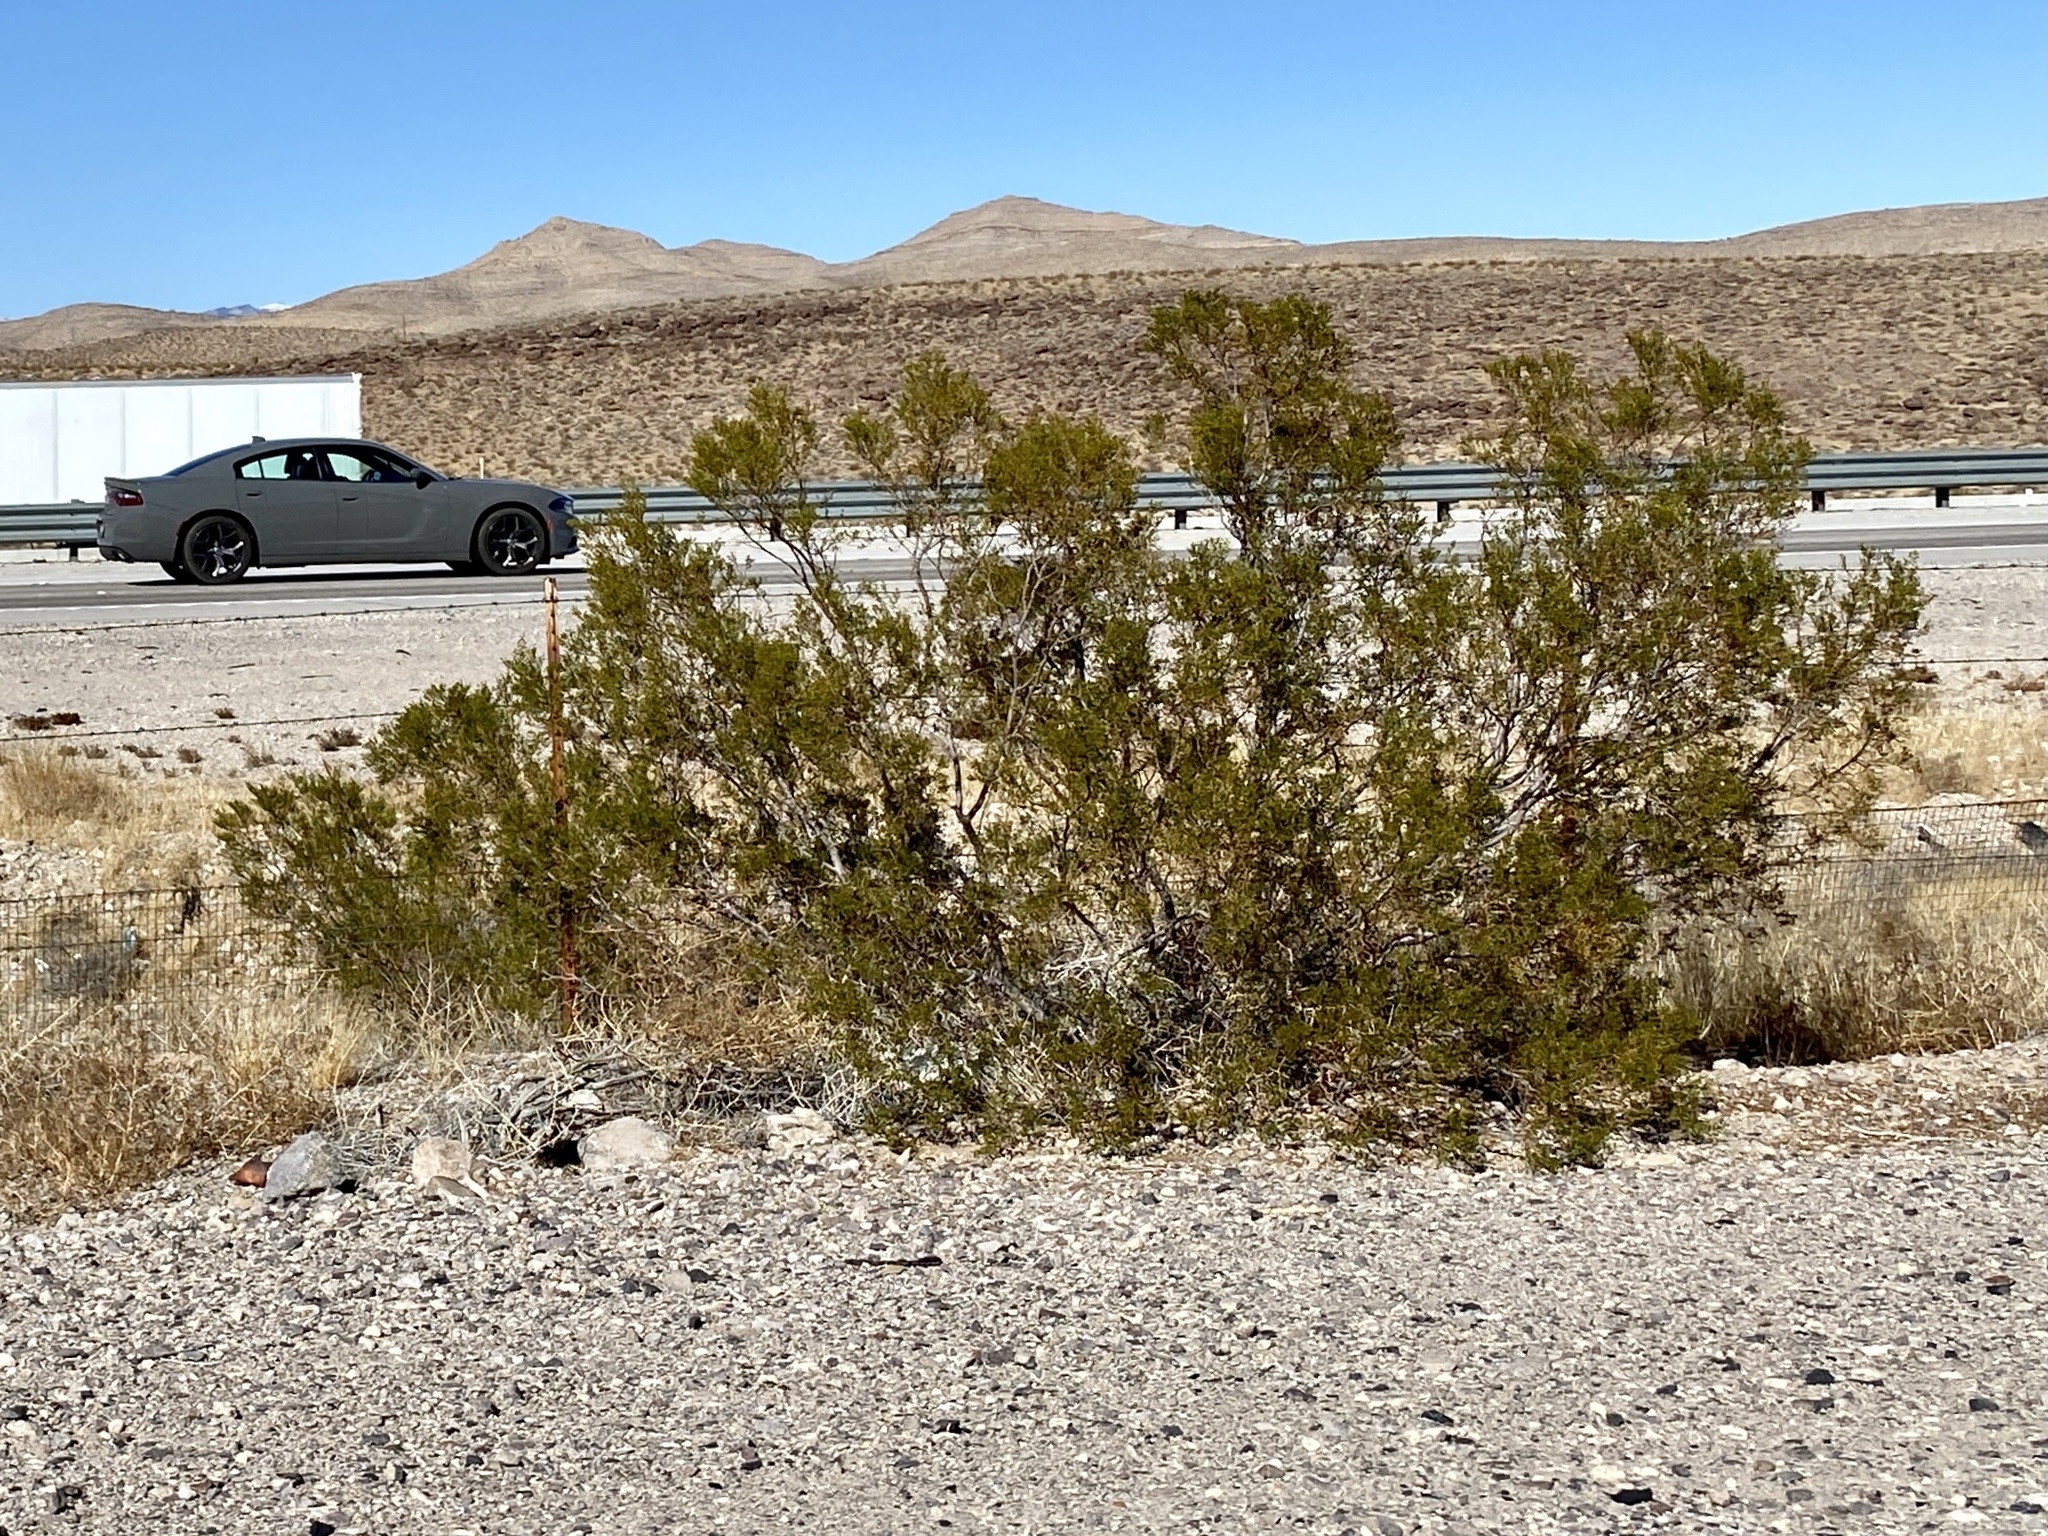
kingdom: Plantae
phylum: Tracheophyta
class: Magnoliopsida
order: Zygophyllales
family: Zygophyllaceae
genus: Larrea
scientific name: Larrea tridentata
